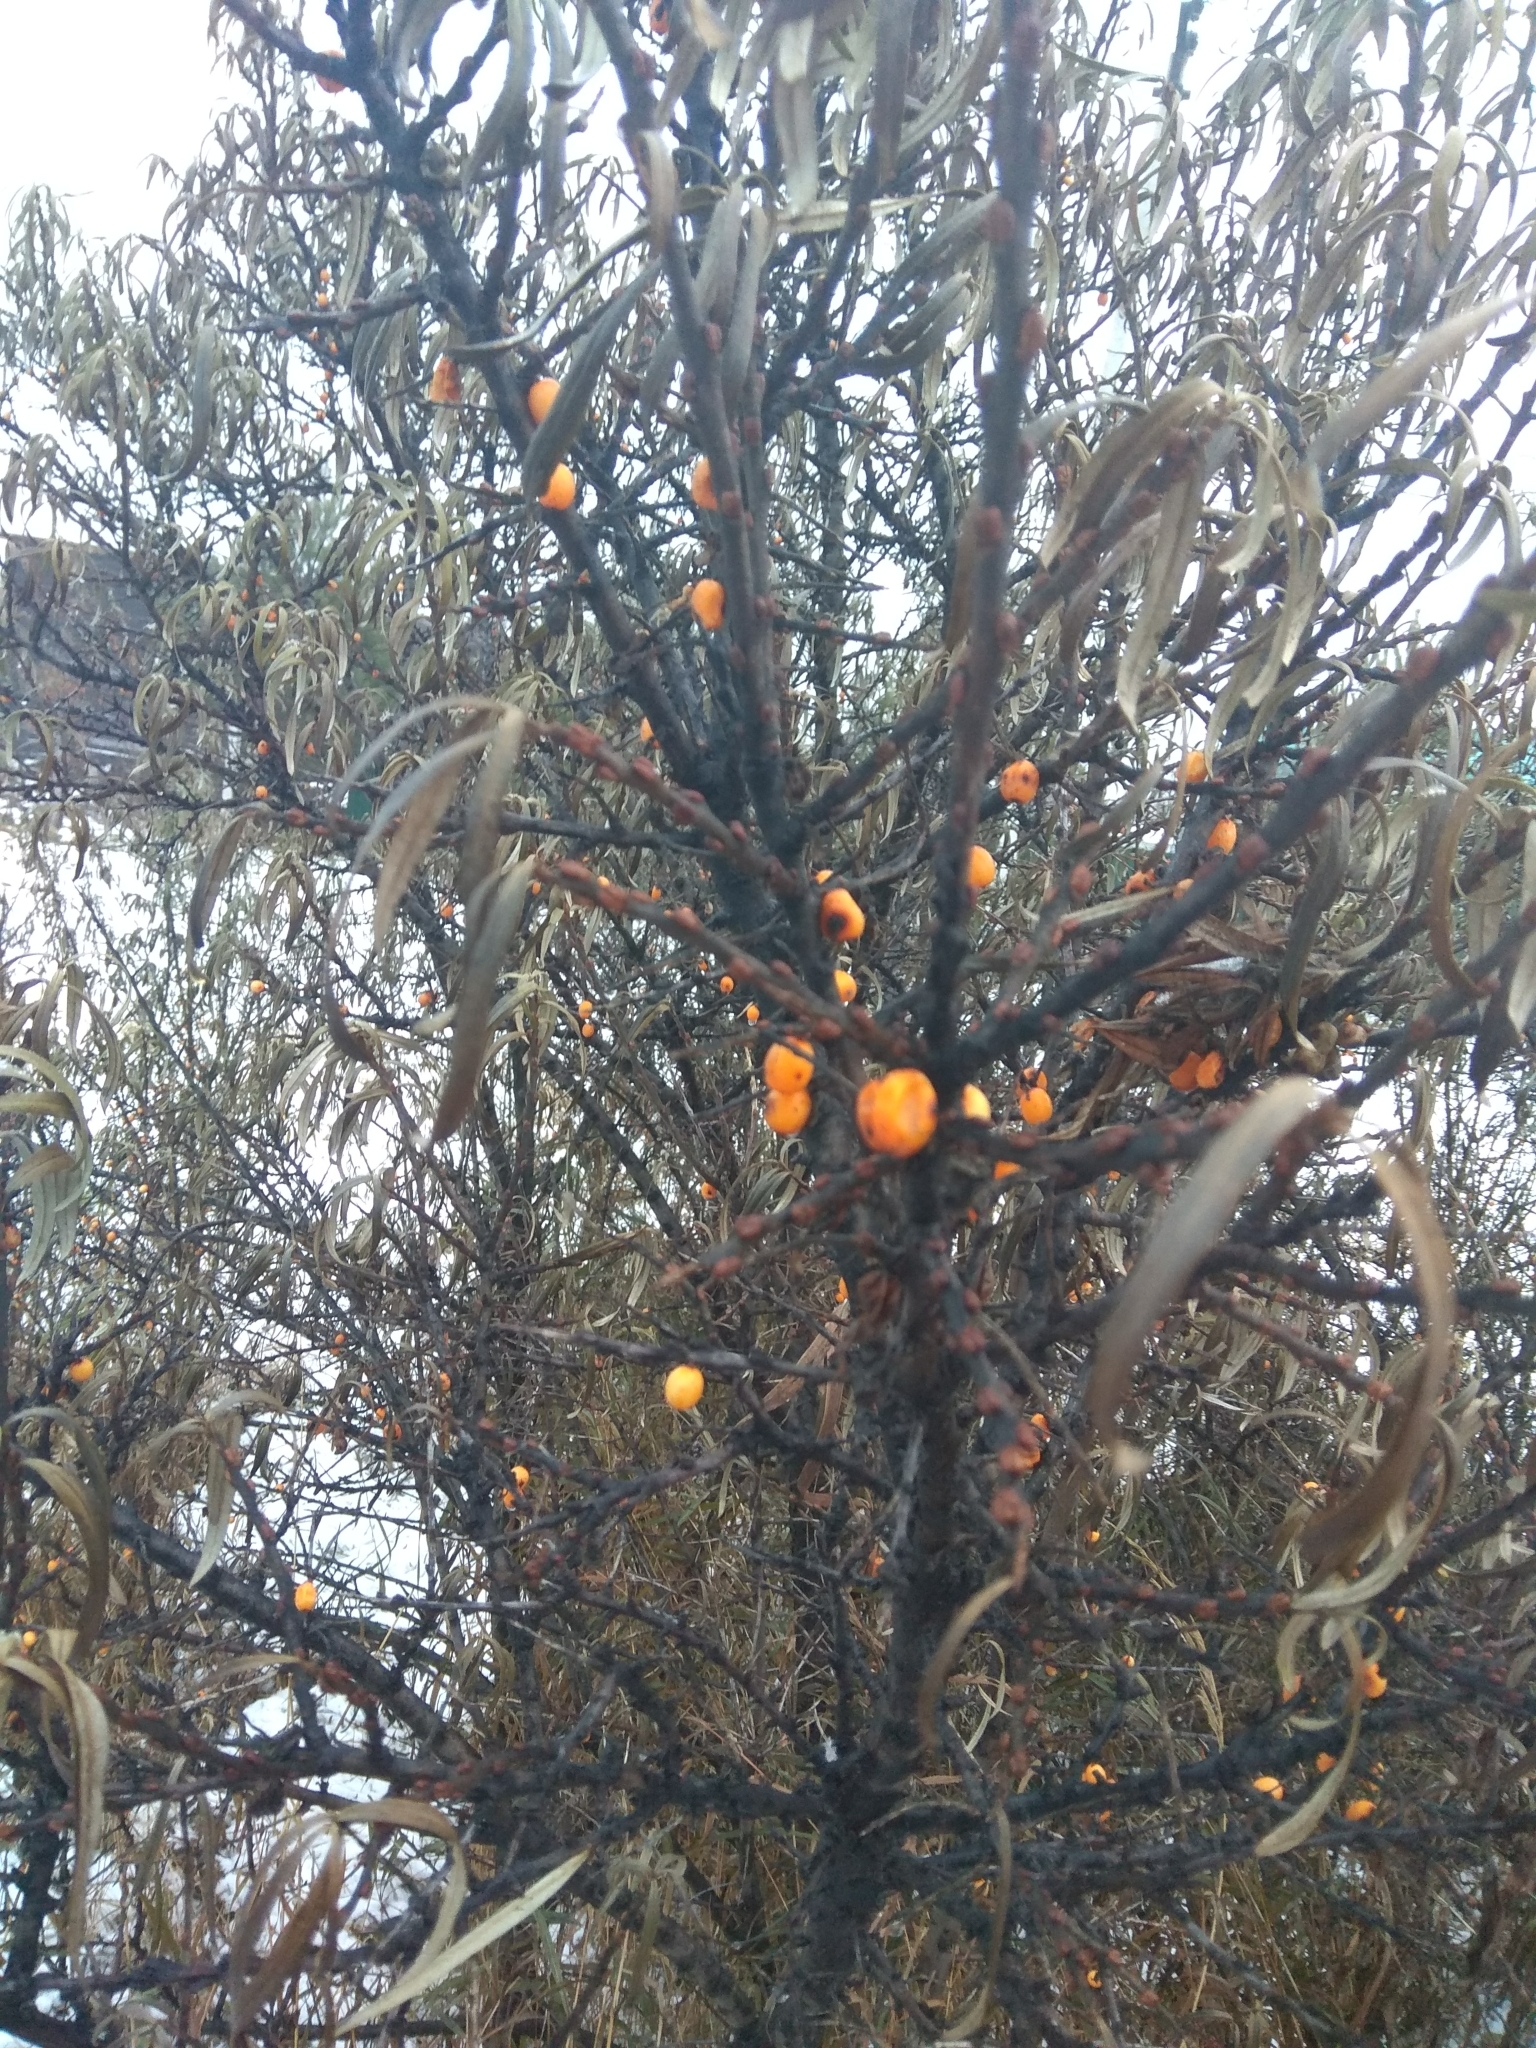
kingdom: Plantae
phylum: Tracheophyta
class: Magnoliopsida
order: Rosales
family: Elaeagnaceae
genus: Hippophae
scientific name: Hippophae rhamnoides
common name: Sea-buckthorn
